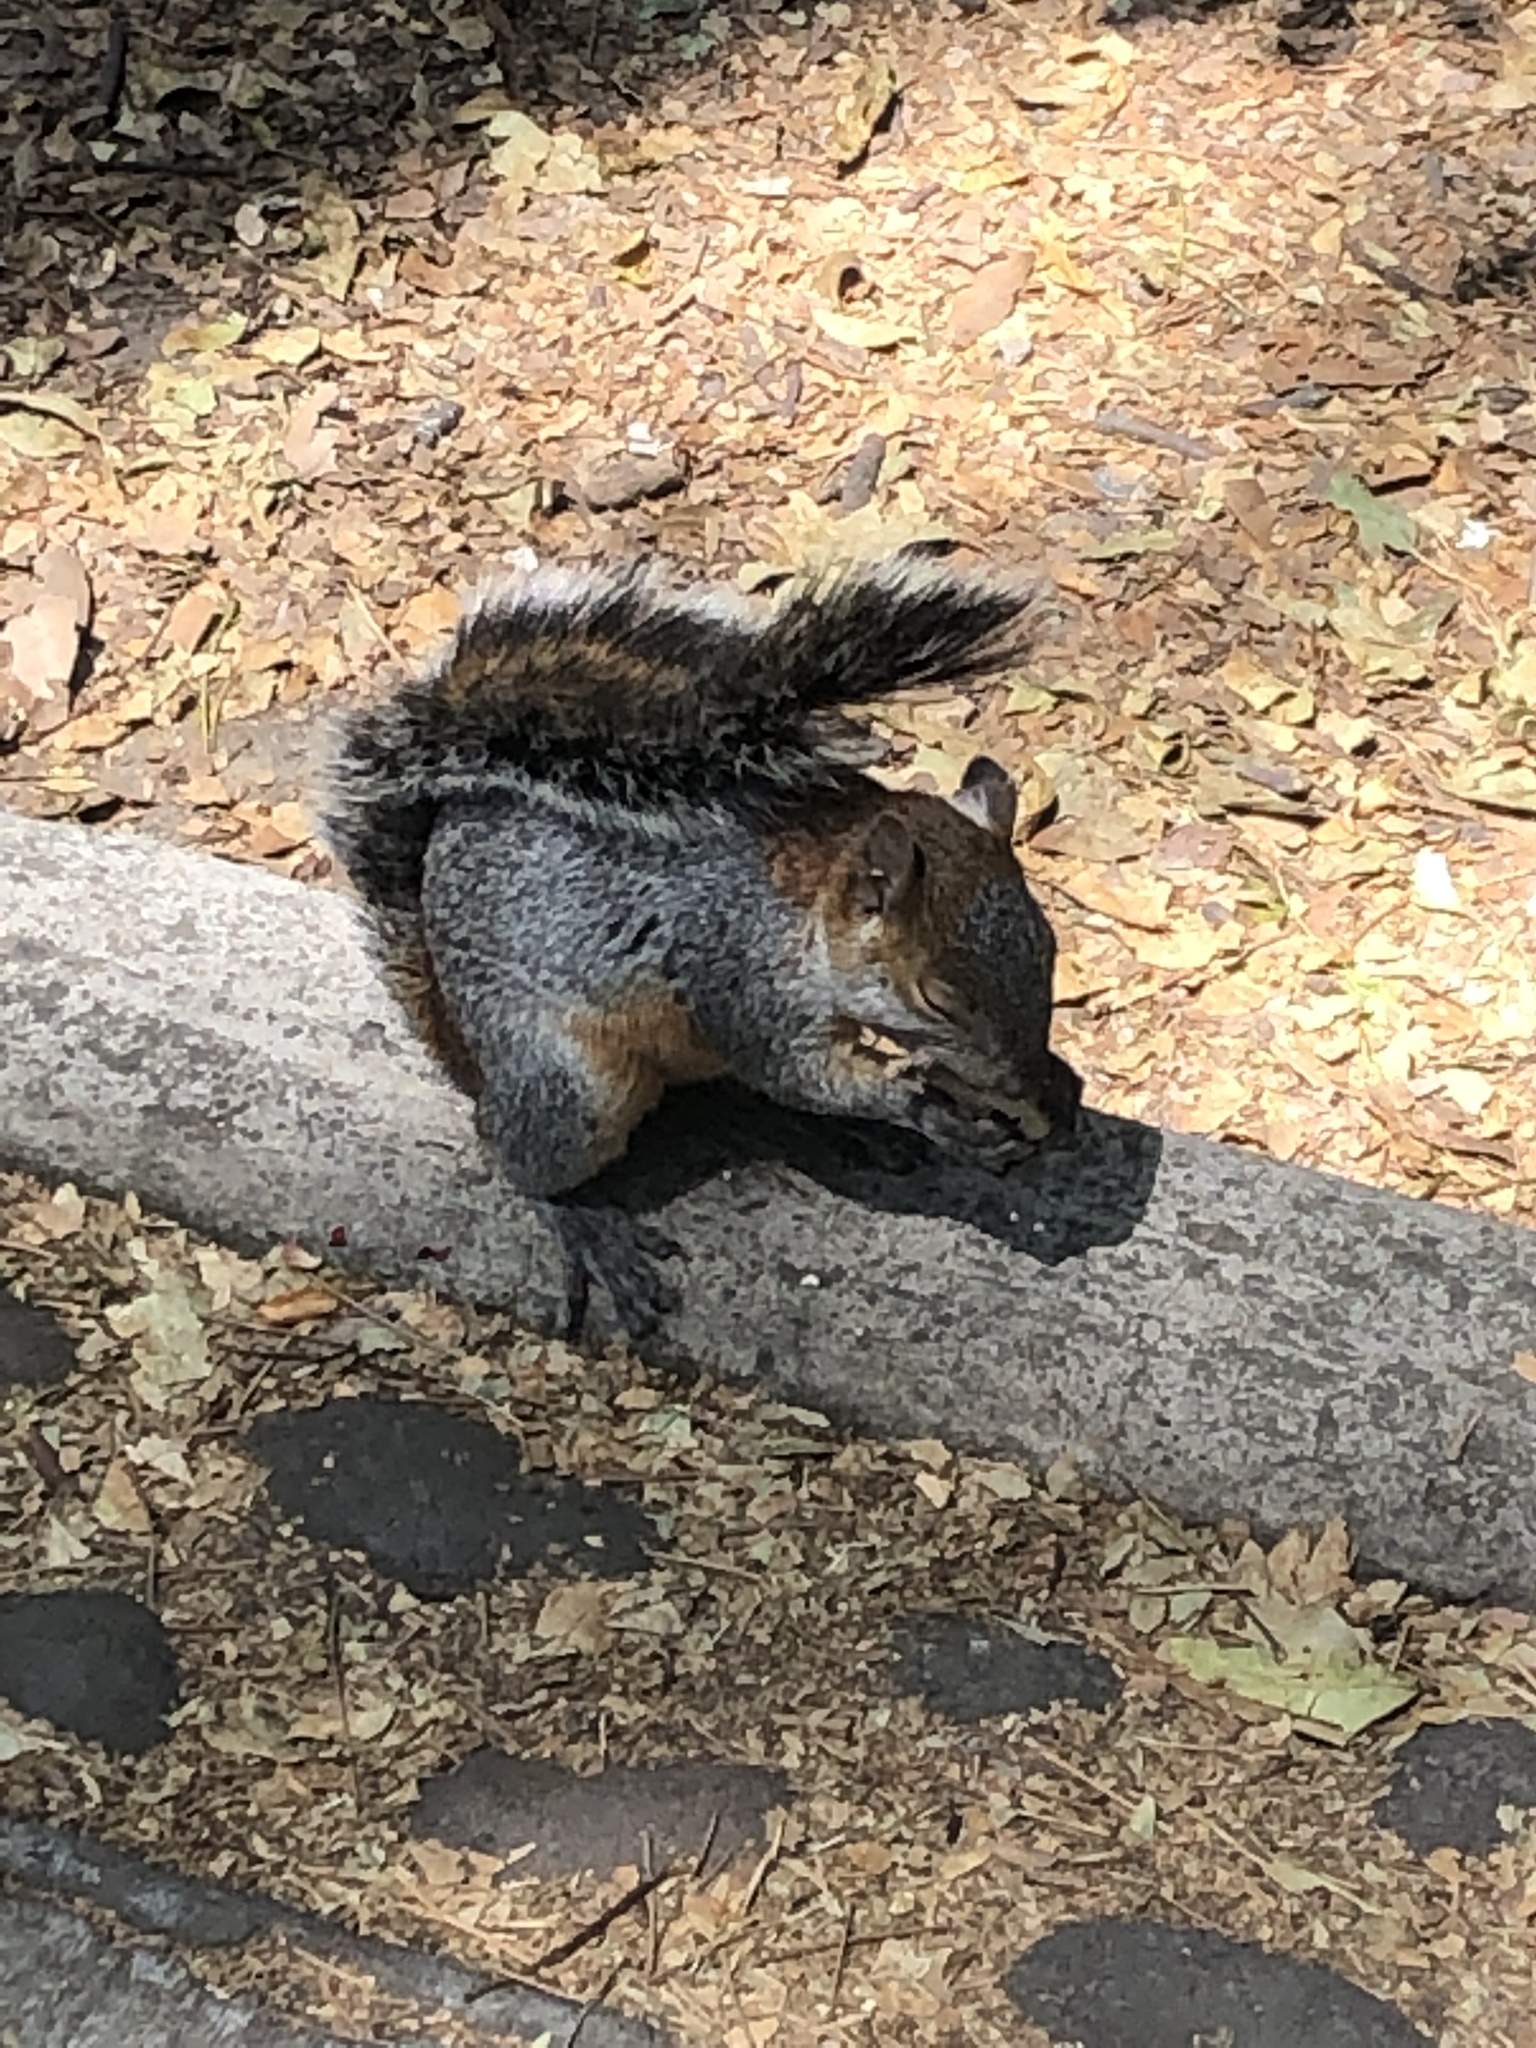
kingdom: Animalia
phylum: Chordata
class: Mammalia
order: Rodentia
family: Sciuridae
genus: Sciurus
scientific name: Sciurus aureogaster
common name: Red-bellied squirrel
